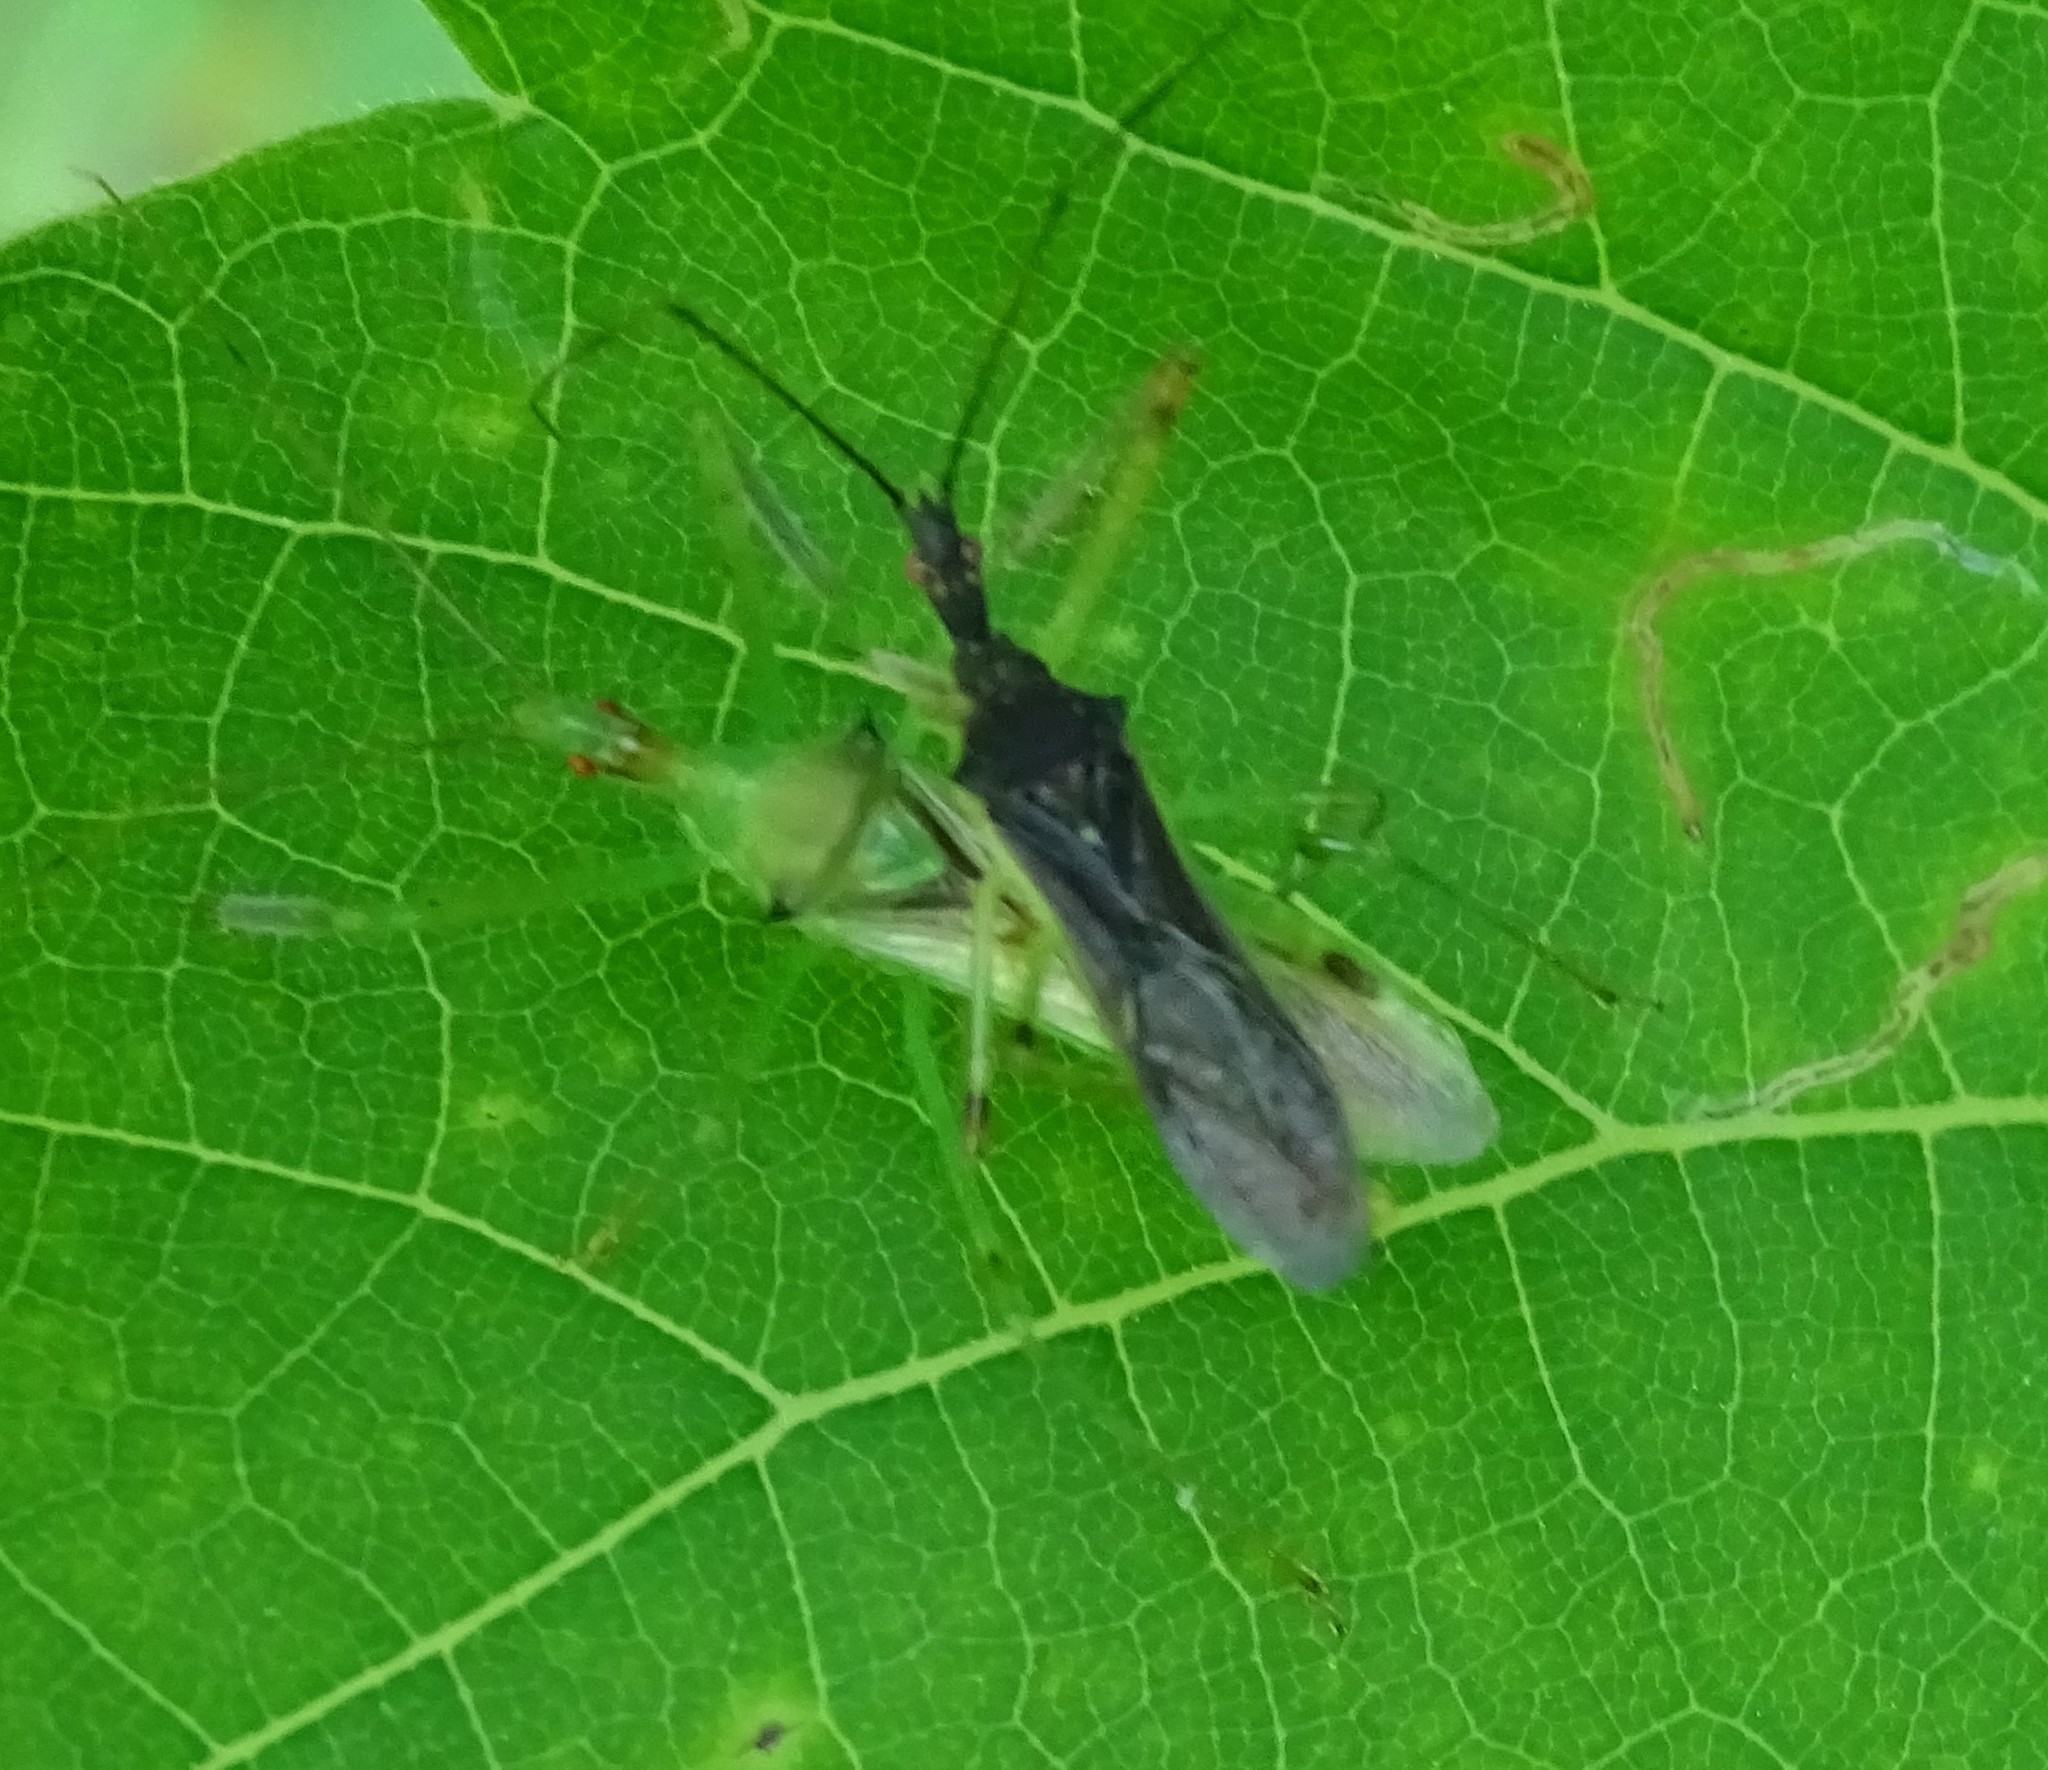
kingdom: Animalia
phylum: Arthropoda
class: Insecta
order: Hemiptera
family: Reduviidae
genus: Zelus
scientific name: Zelus luridus
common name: Pale green assassin bug
